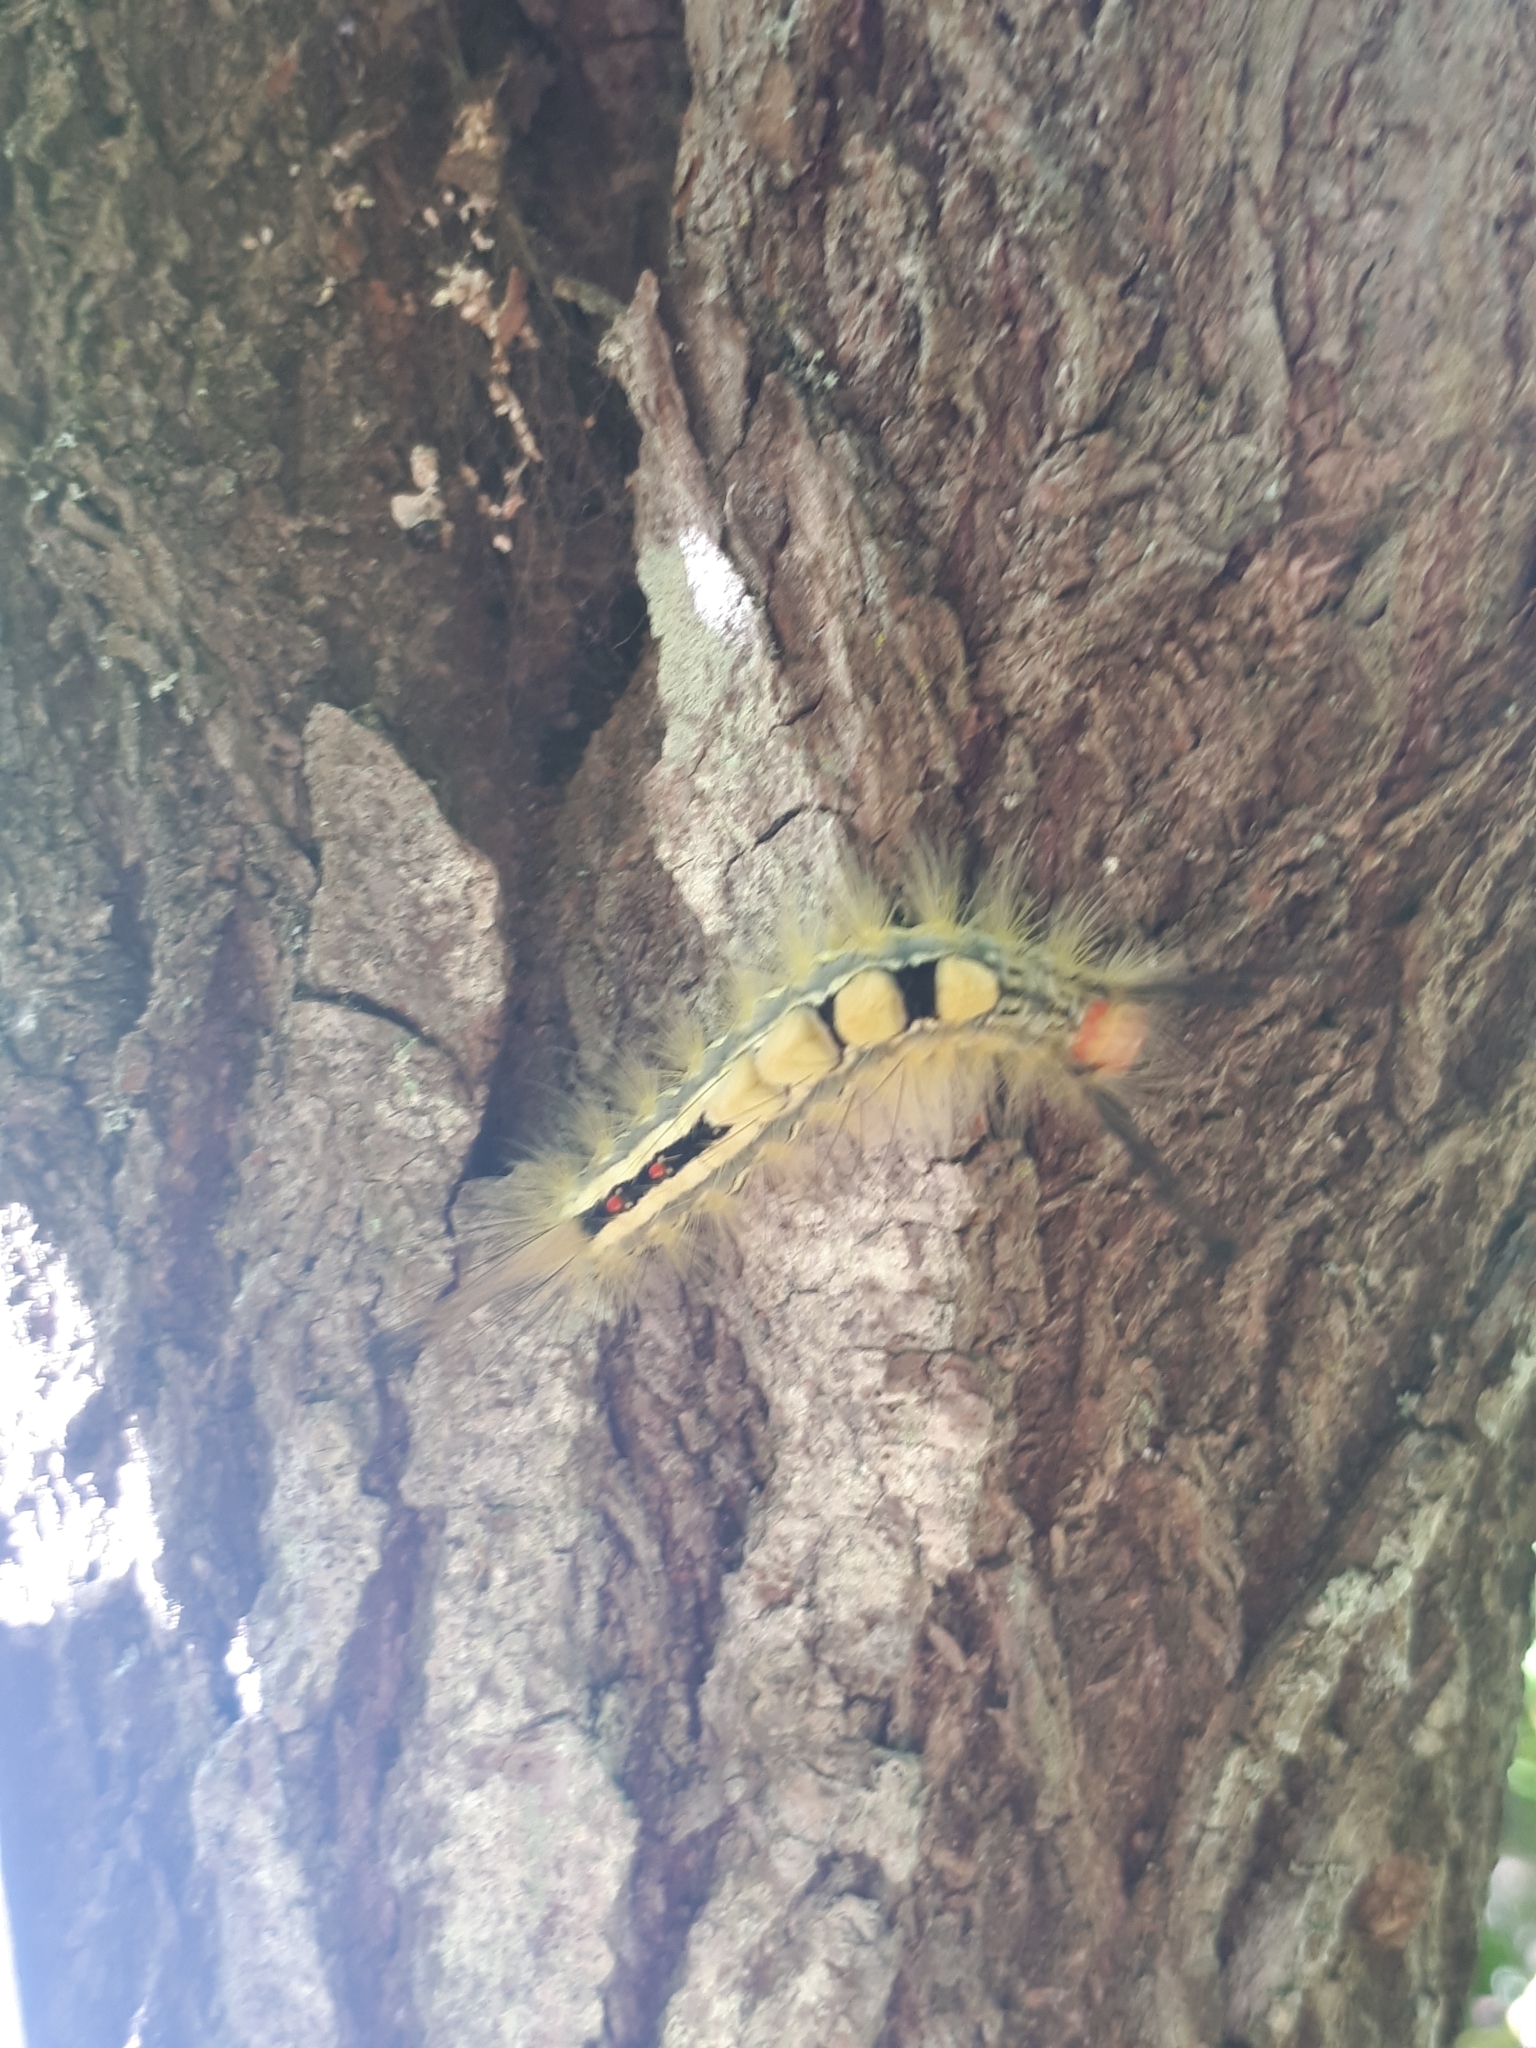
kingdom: Animalia
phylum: Arthropoda
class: Insecta
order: Lepidoptera
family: Erebidae
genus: Orgyia
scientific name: Orgyia leucostigma
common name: White-marked tussock moth
